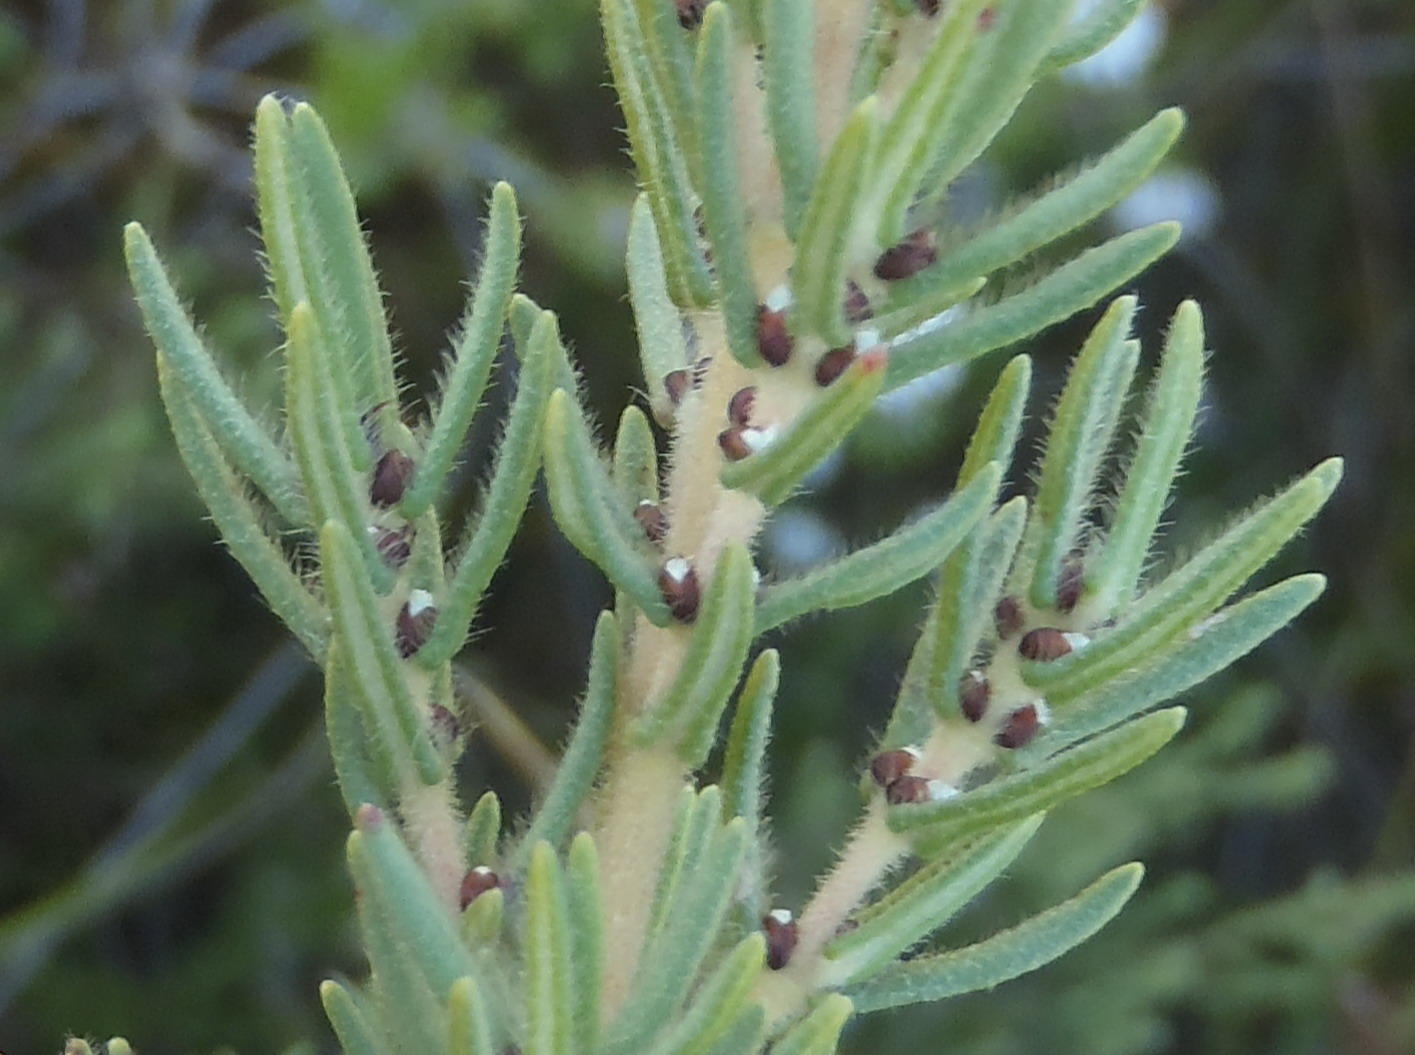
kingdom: Plantae
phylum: Tracheophyta
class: Magnoliopsida
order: Cornales
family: Grubbiaceae
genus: Grubbia
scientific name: Grubbia rosmarinifolia
